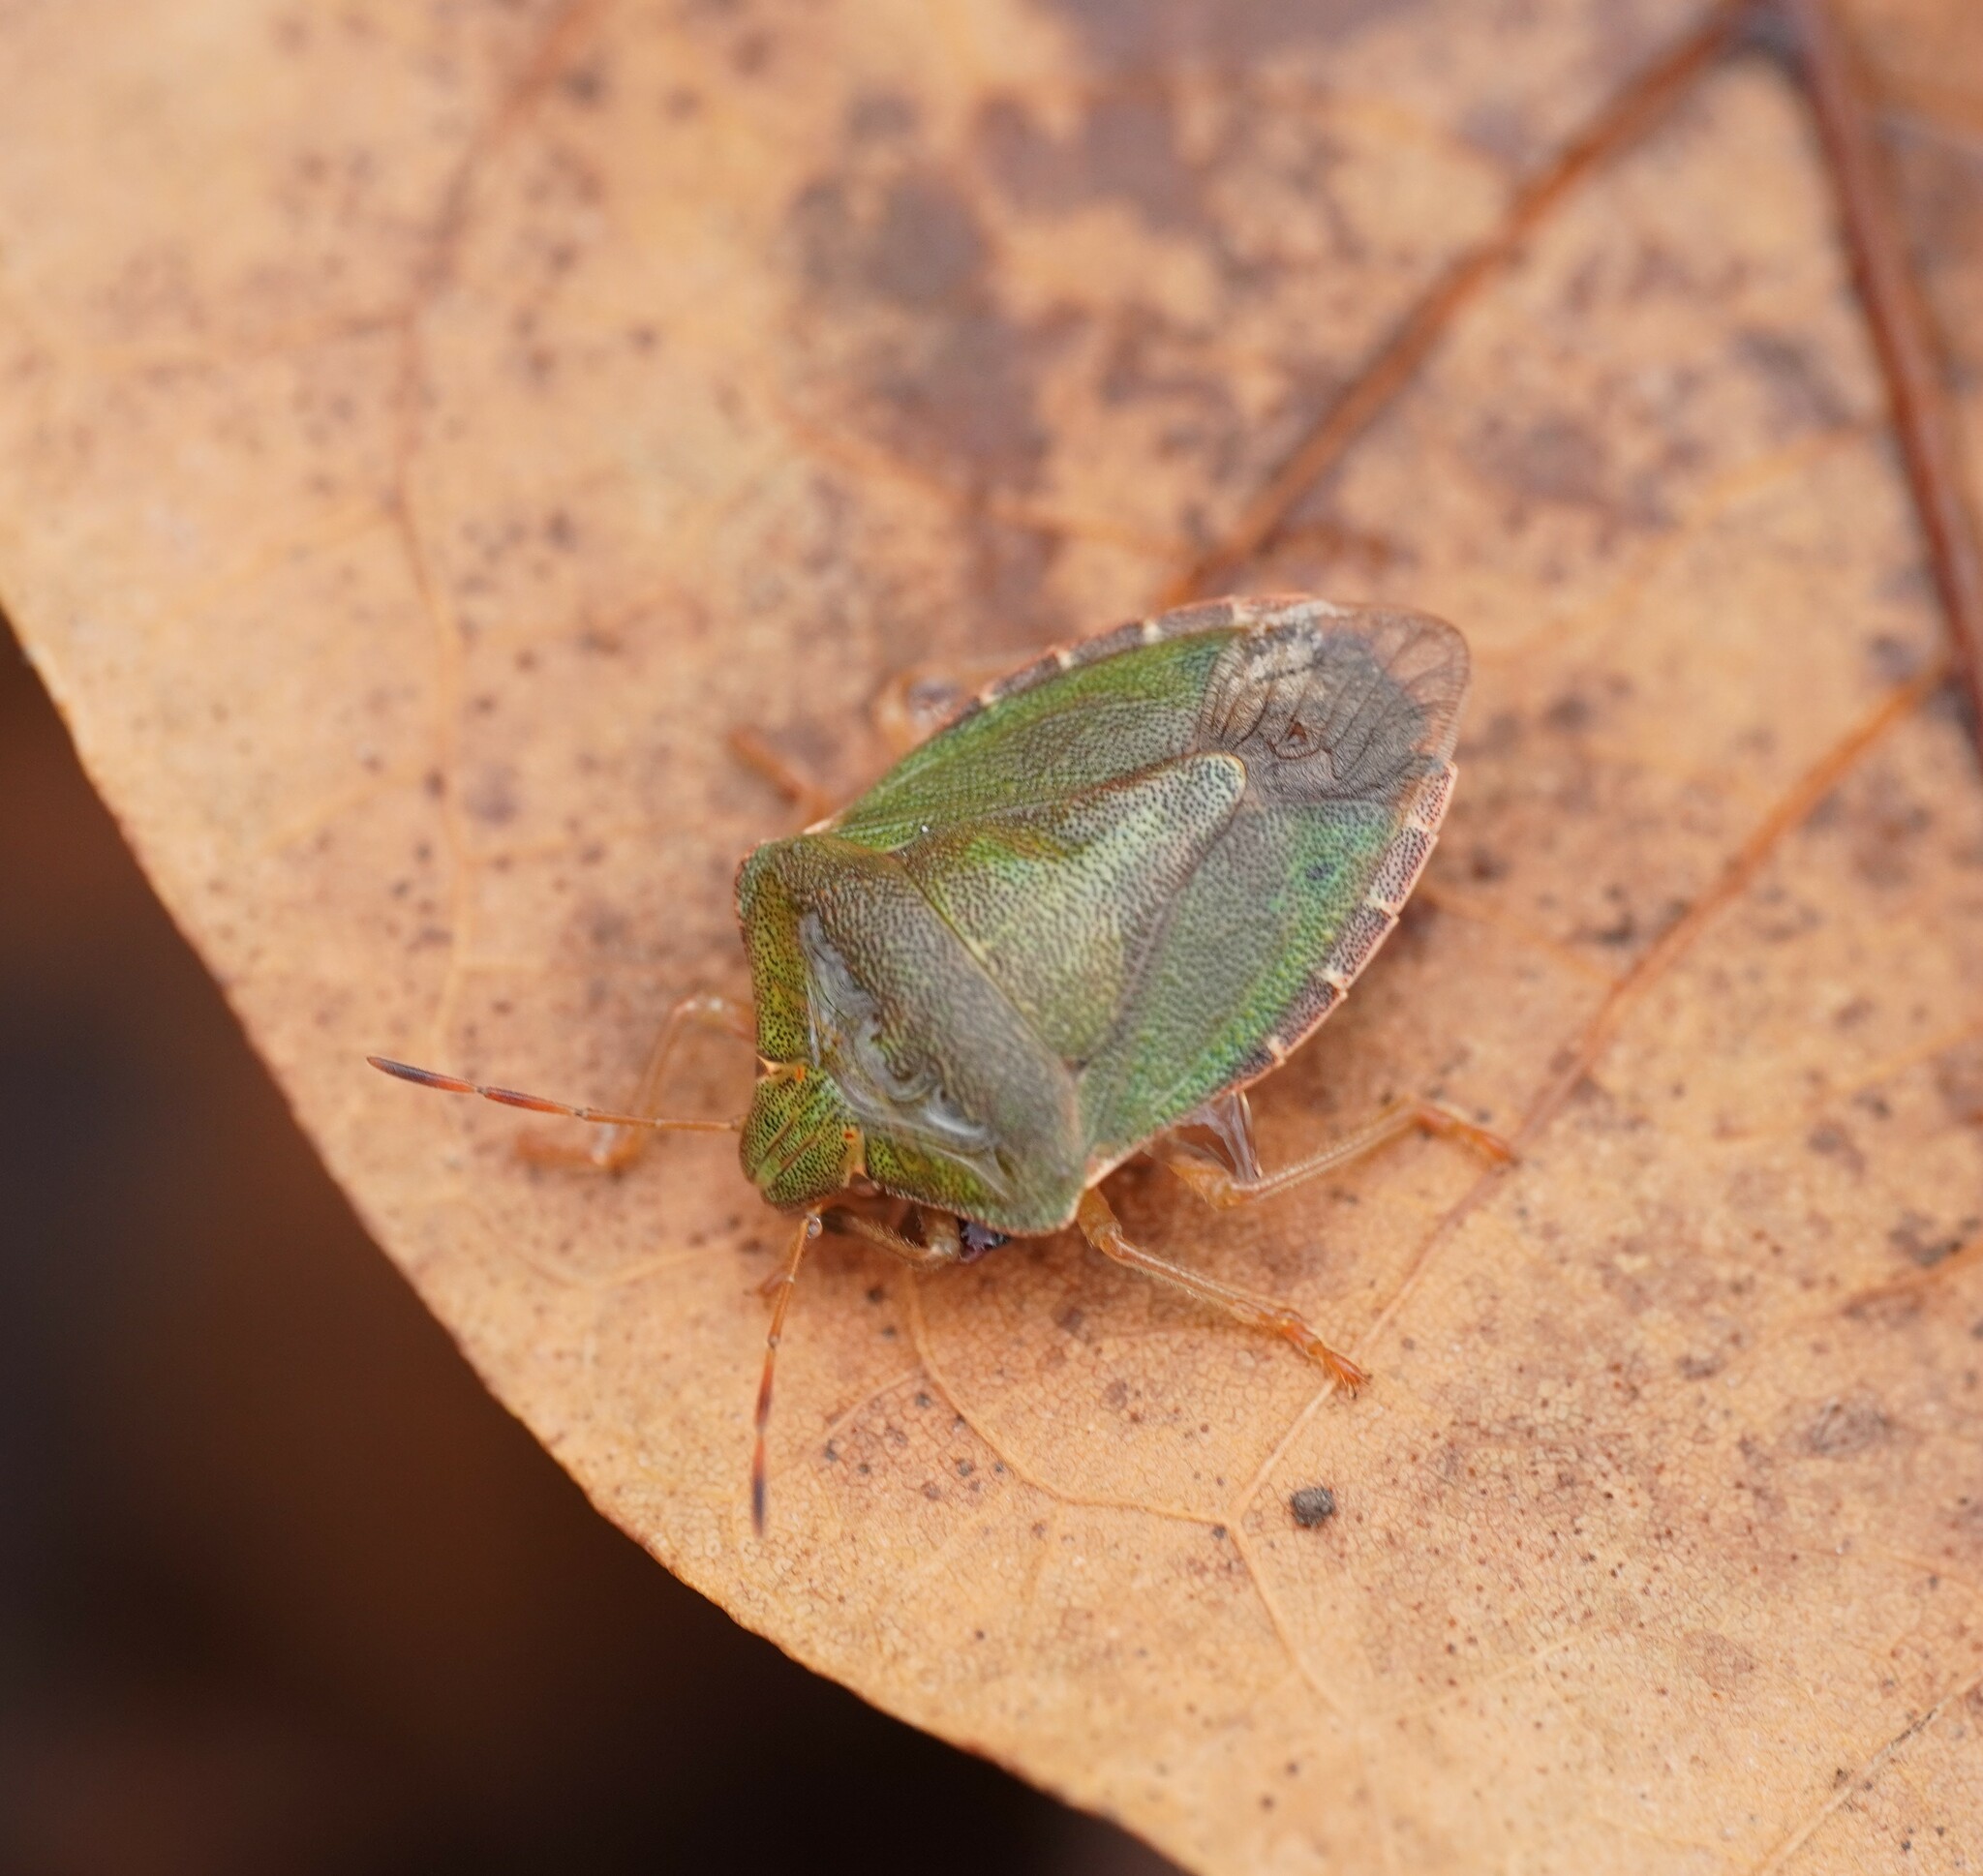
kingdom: Animalia
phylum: Arthropoda
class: Insecta
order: Hemiptera
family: Pentatomidae
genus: Palomena
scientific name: Palomena prasina
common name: Green shieldbug
